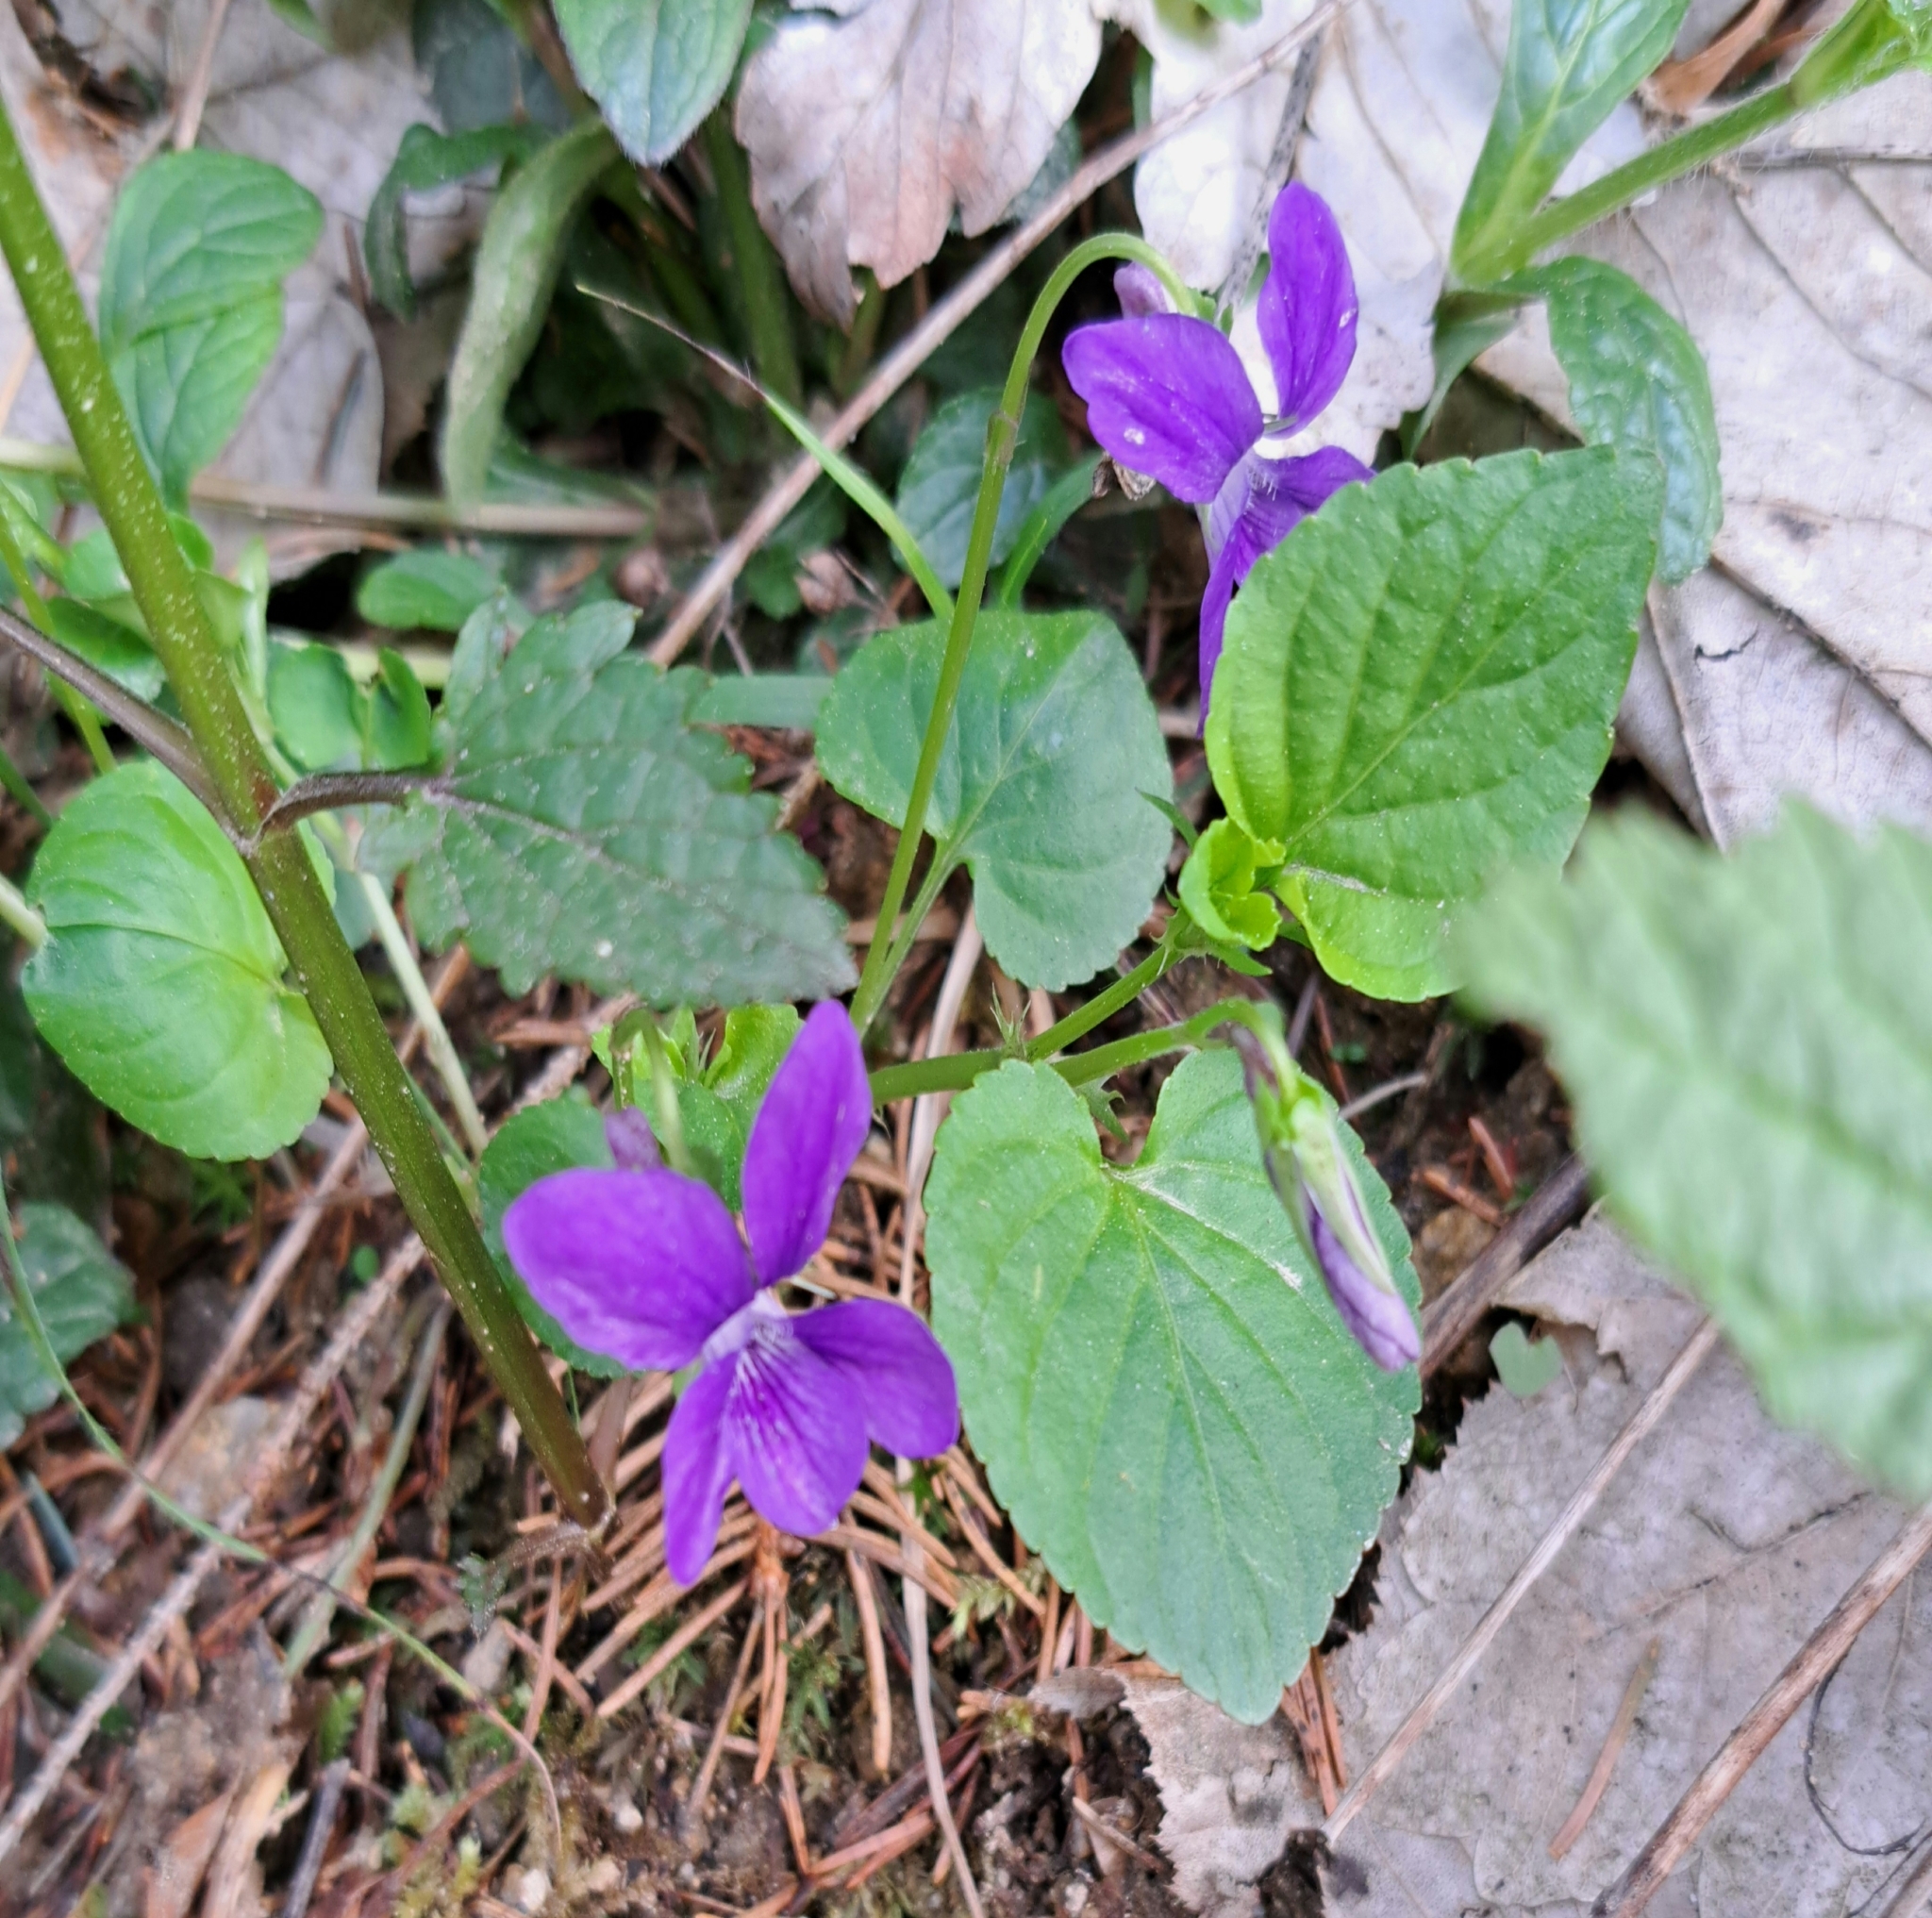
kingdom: Plantae
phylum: Tracheophyta
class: Magnoliopsida
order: Malpighiales
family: Violaceae
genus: Viola
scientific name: Viola odorata
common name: Sweet violet
